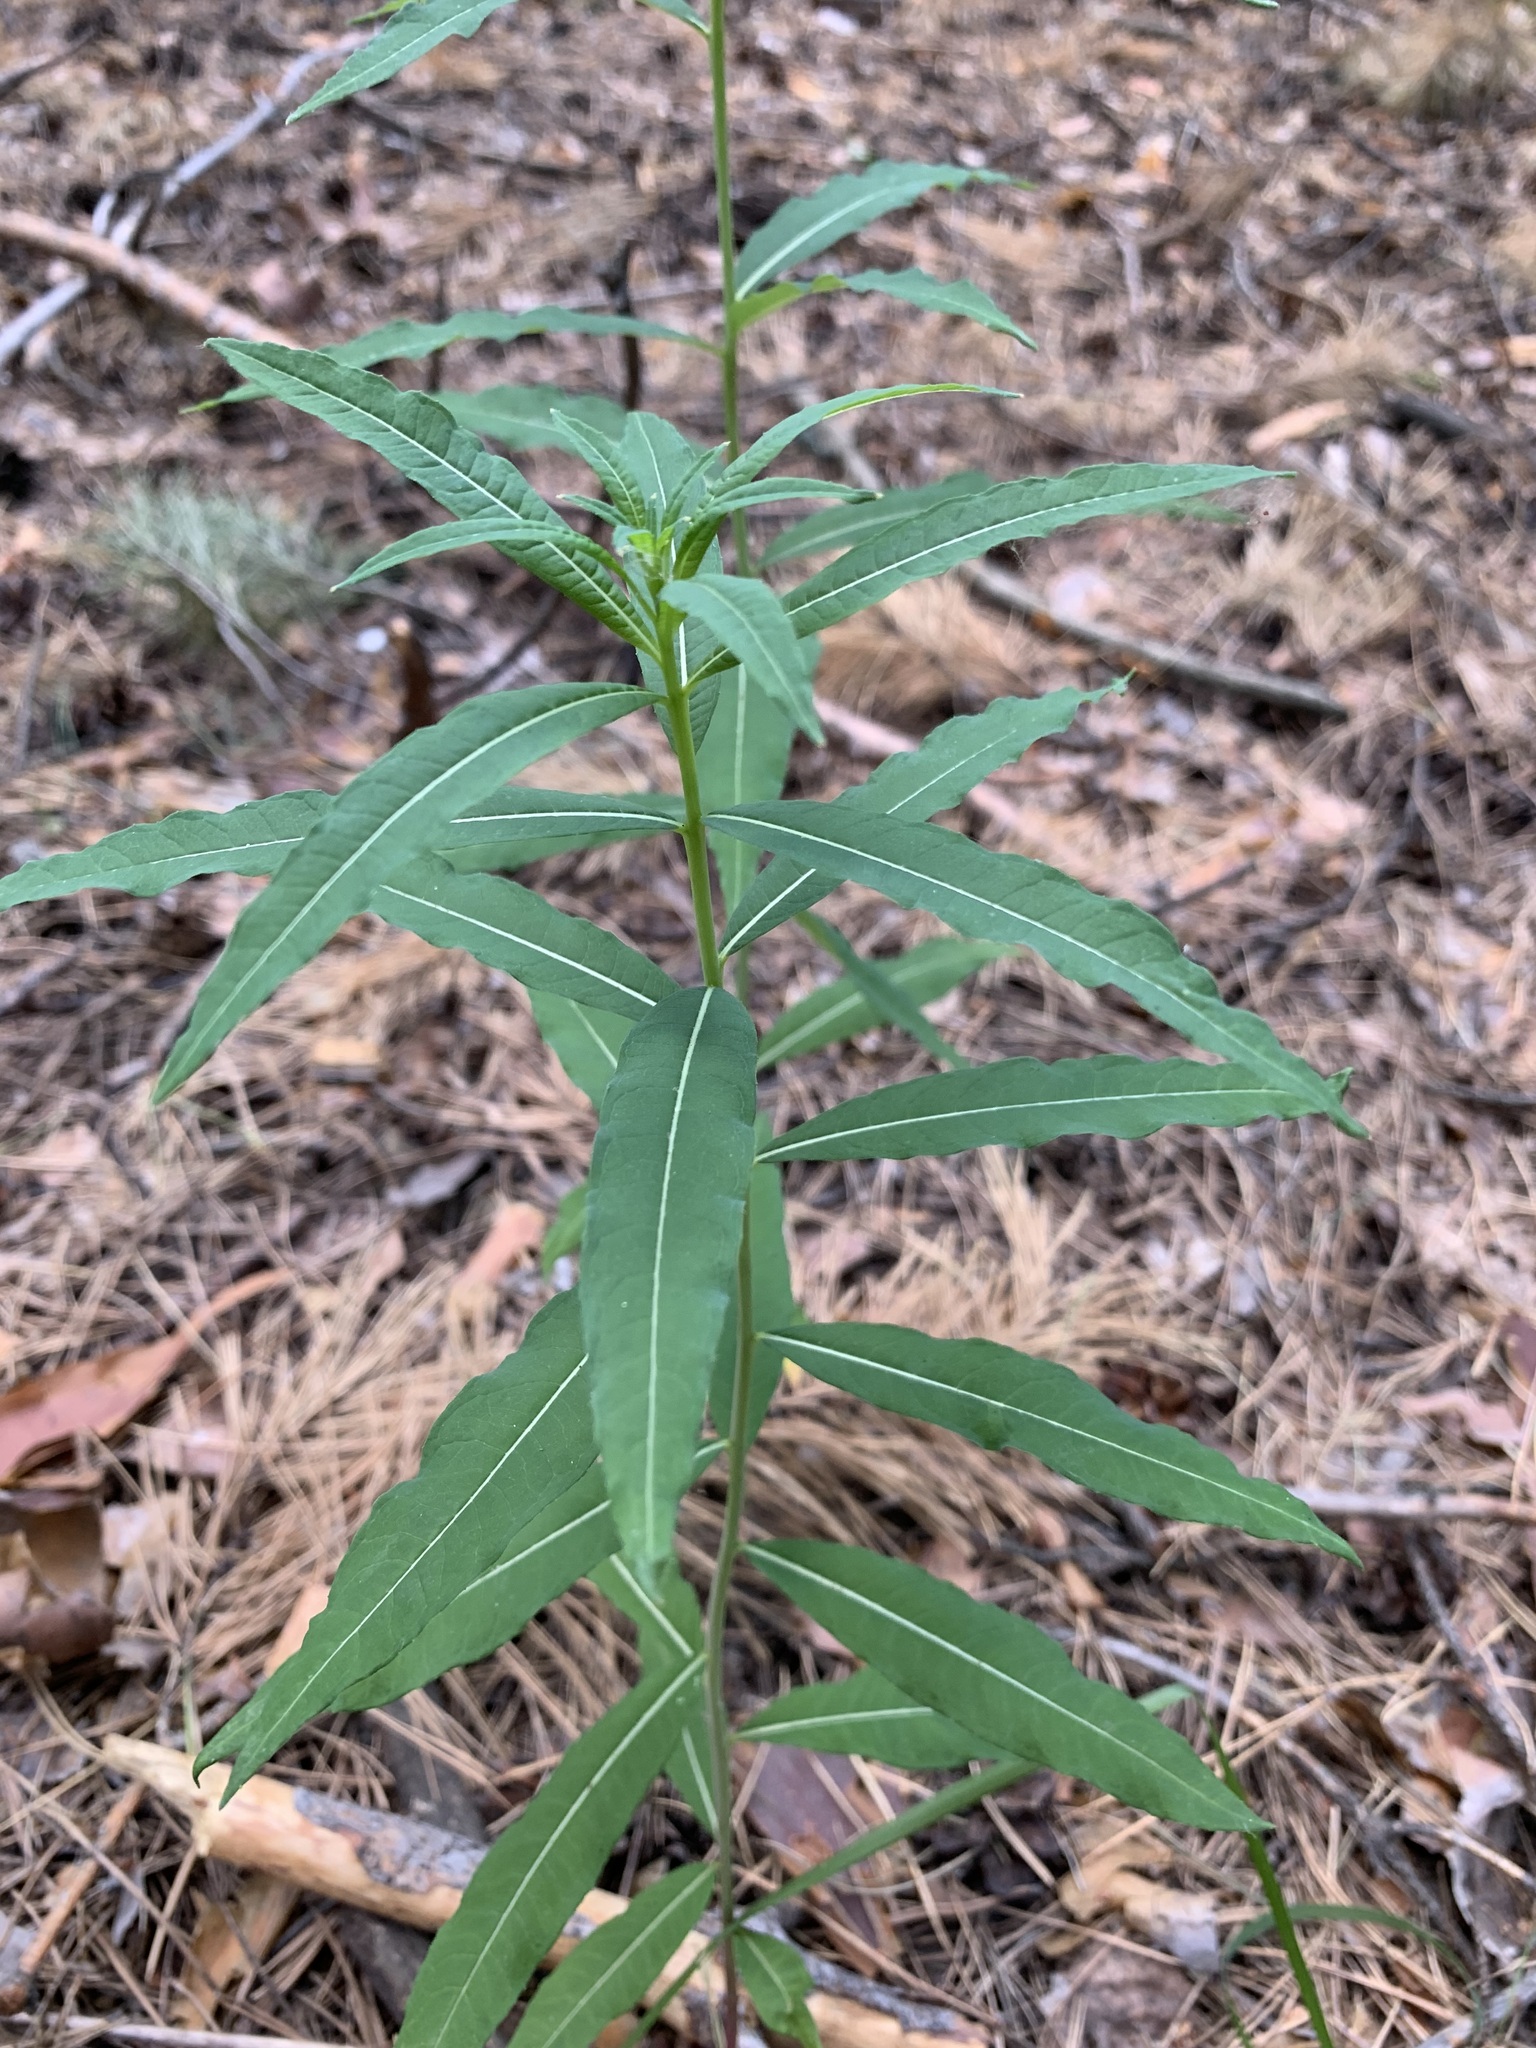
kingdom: Plantae
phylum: Tracheophyta
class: Magnoliopsida
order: Myrtales
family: Onagraceae
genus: Chamaenerion
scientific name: Chamaenerion angustifolium
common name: Fireweed
